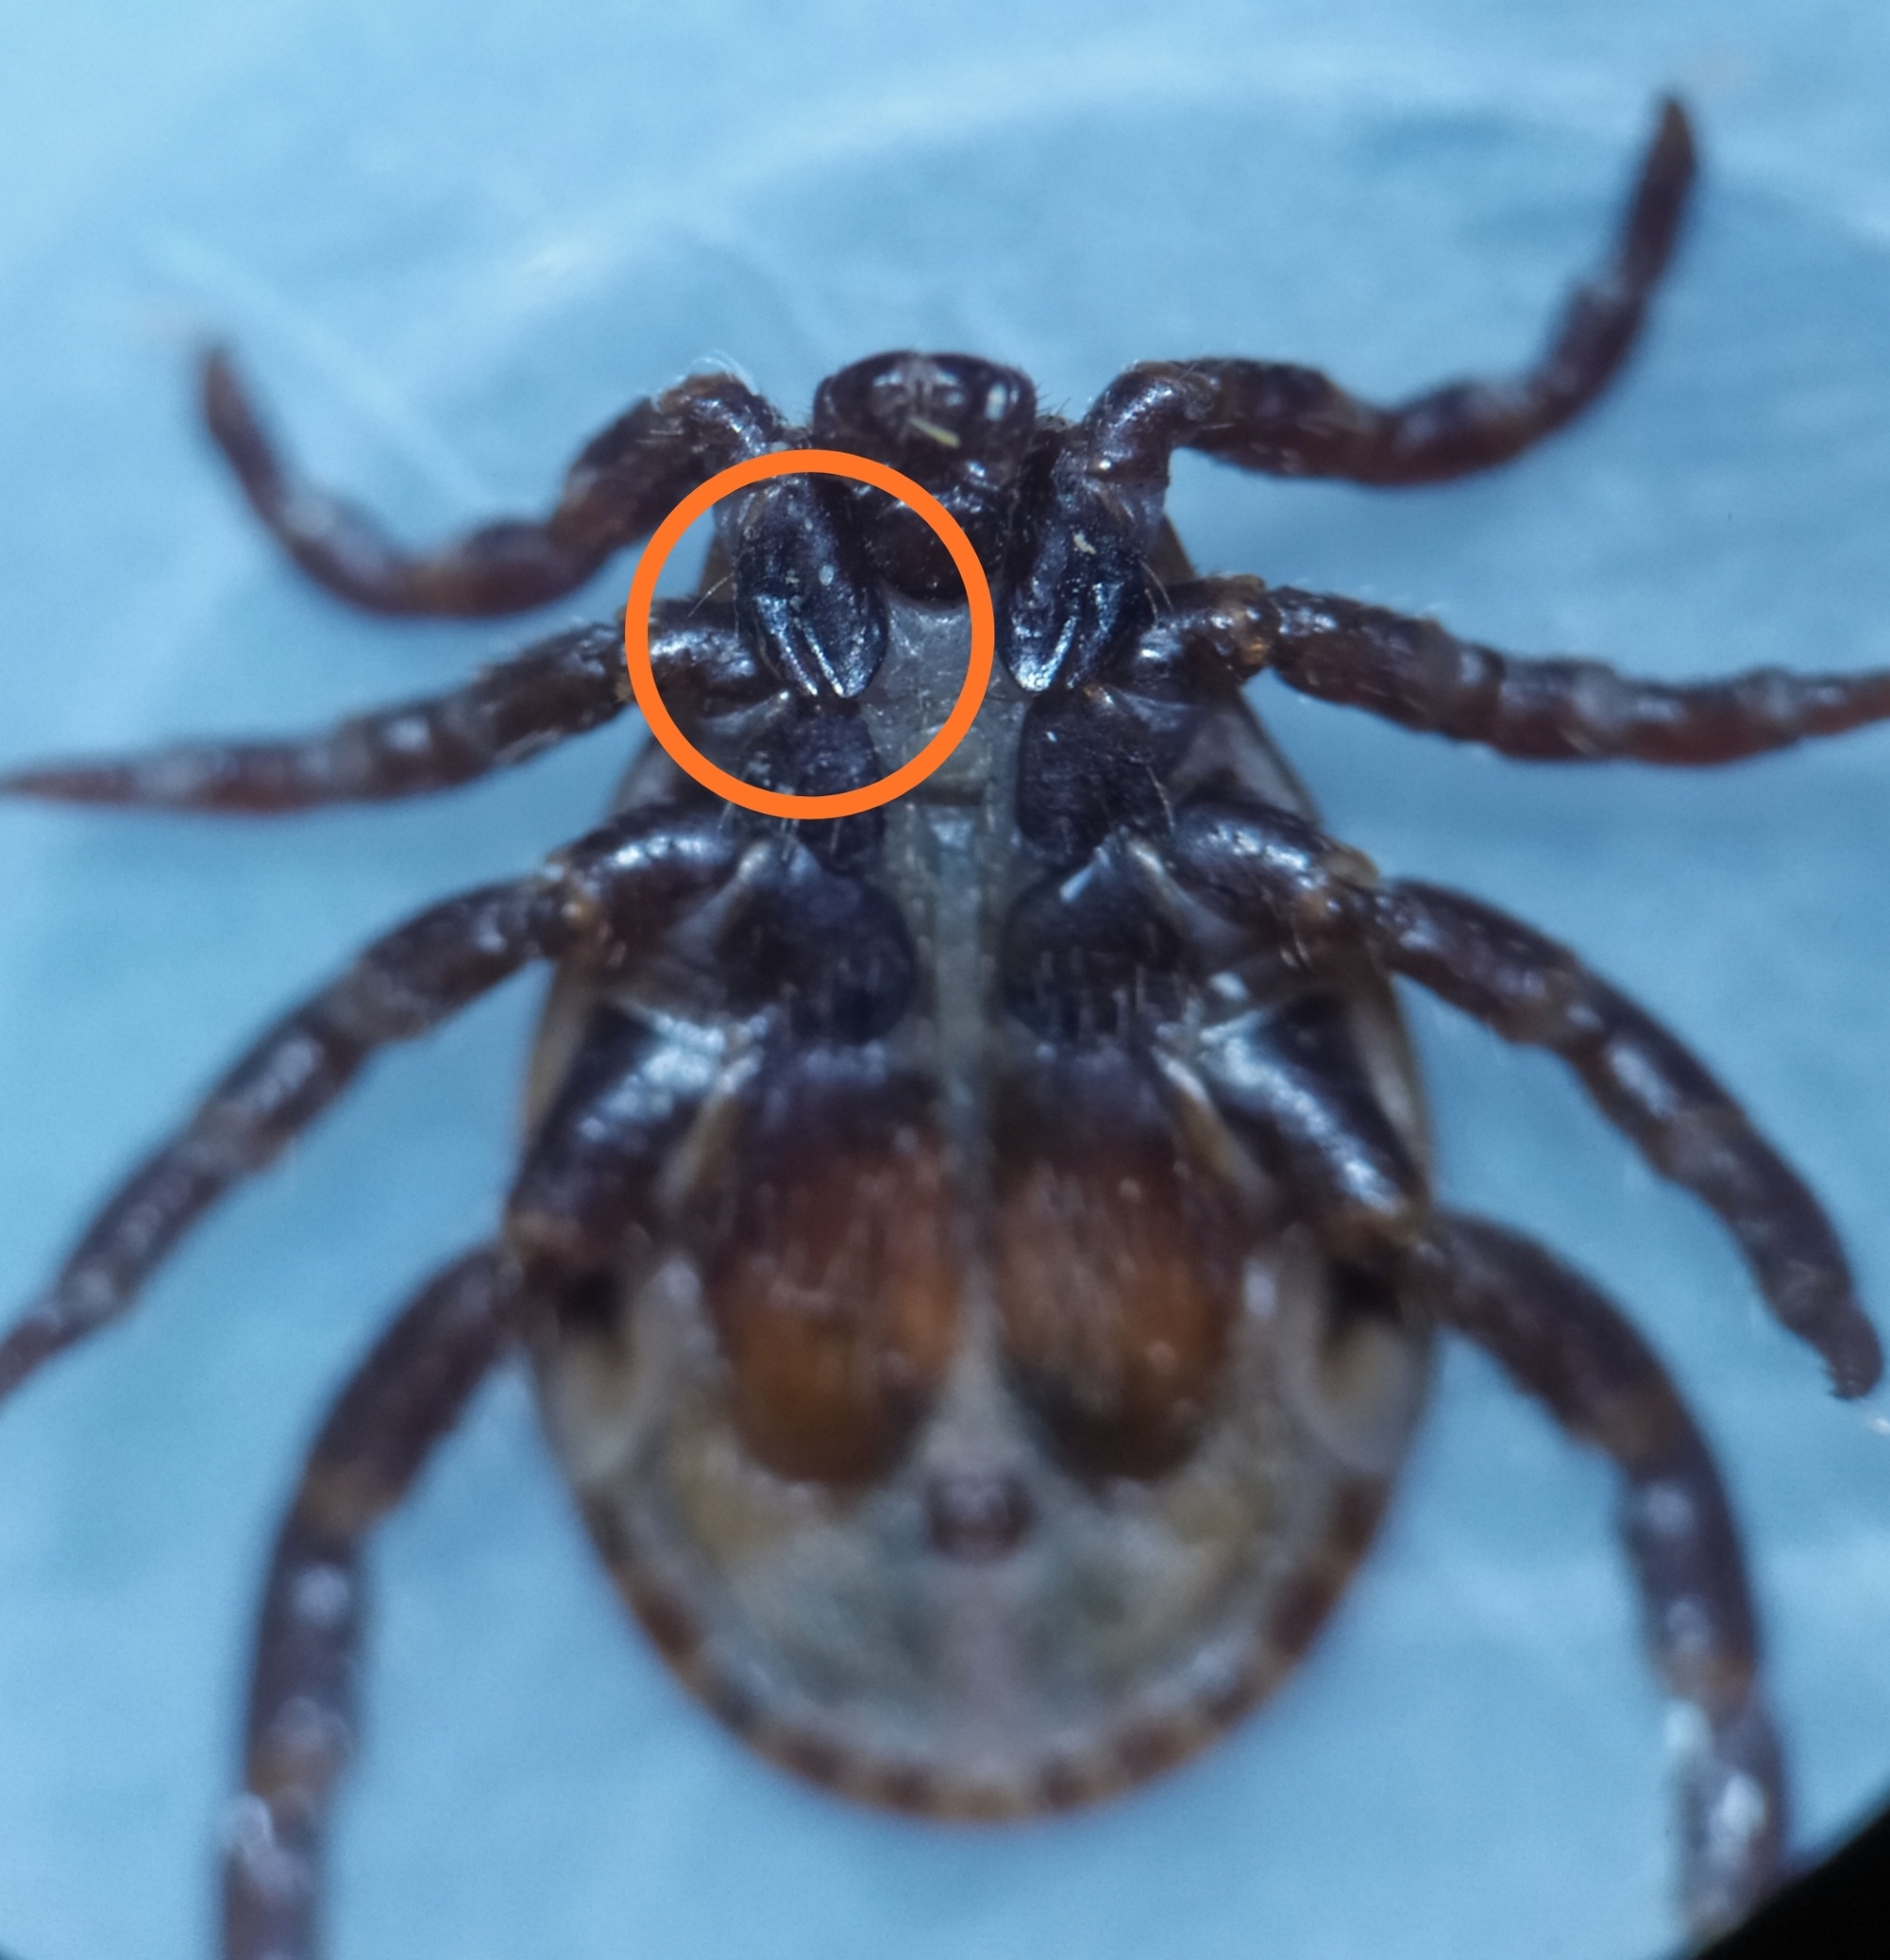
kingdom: Animalia
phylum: Arthropoda
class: Arachnida
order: Ixodida
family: Ixodidae
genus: Dermacentor
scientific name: Dermacentor reticulatus
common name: Ornate cow tick
